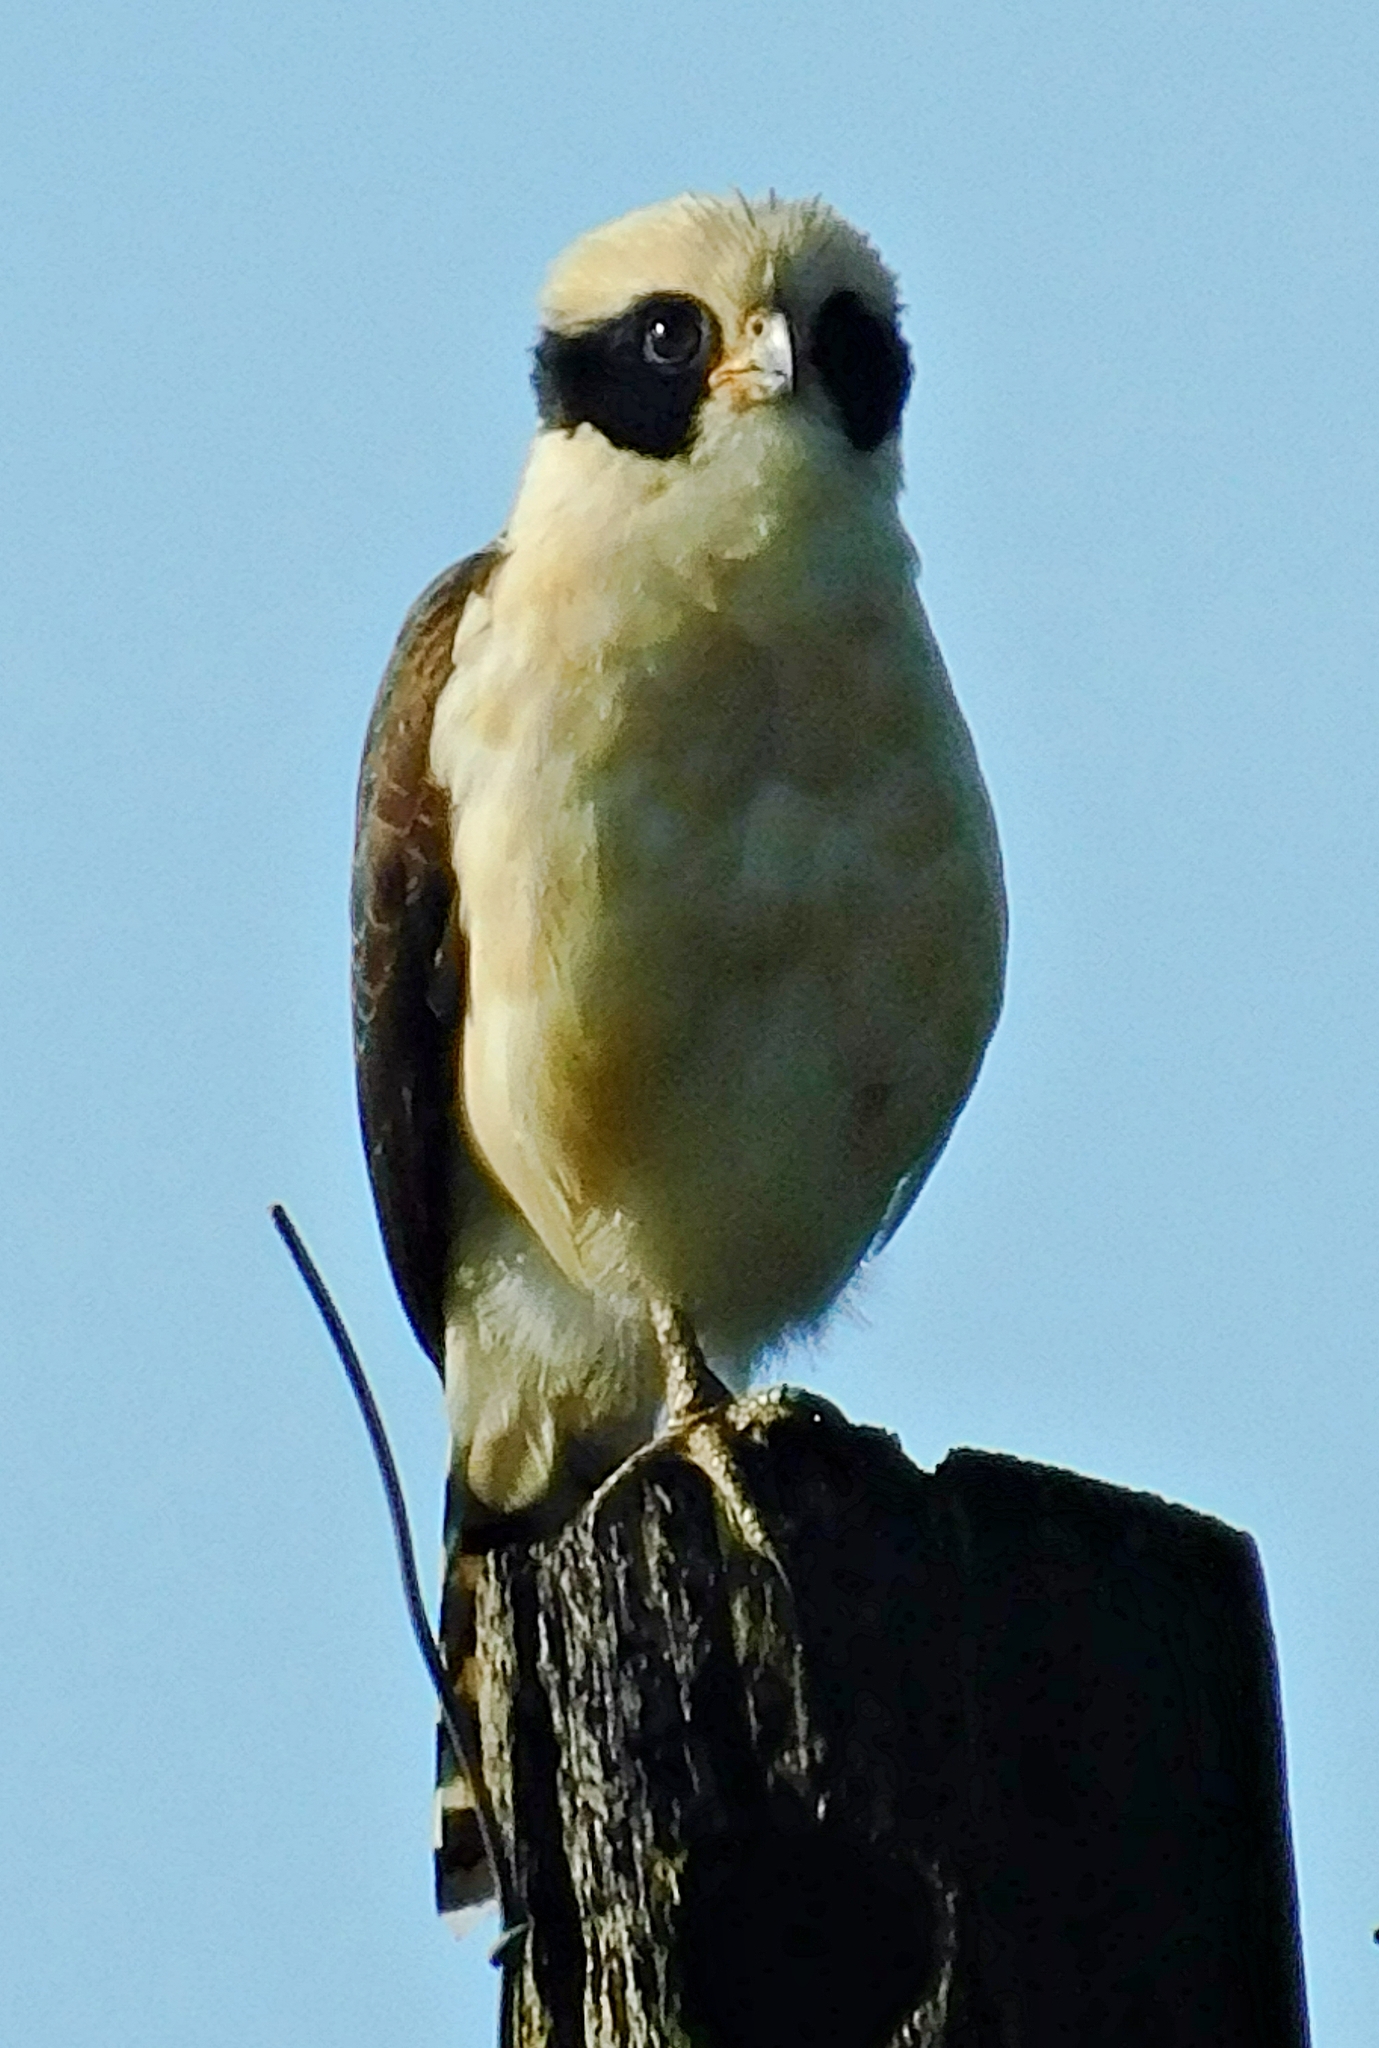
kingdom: Animalia
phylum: Chordata
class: Aves
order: Falconiformes
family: Falconidae
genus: Herpetotheres
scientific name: Herpetotheres cachinnans
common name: Laughing falcon
